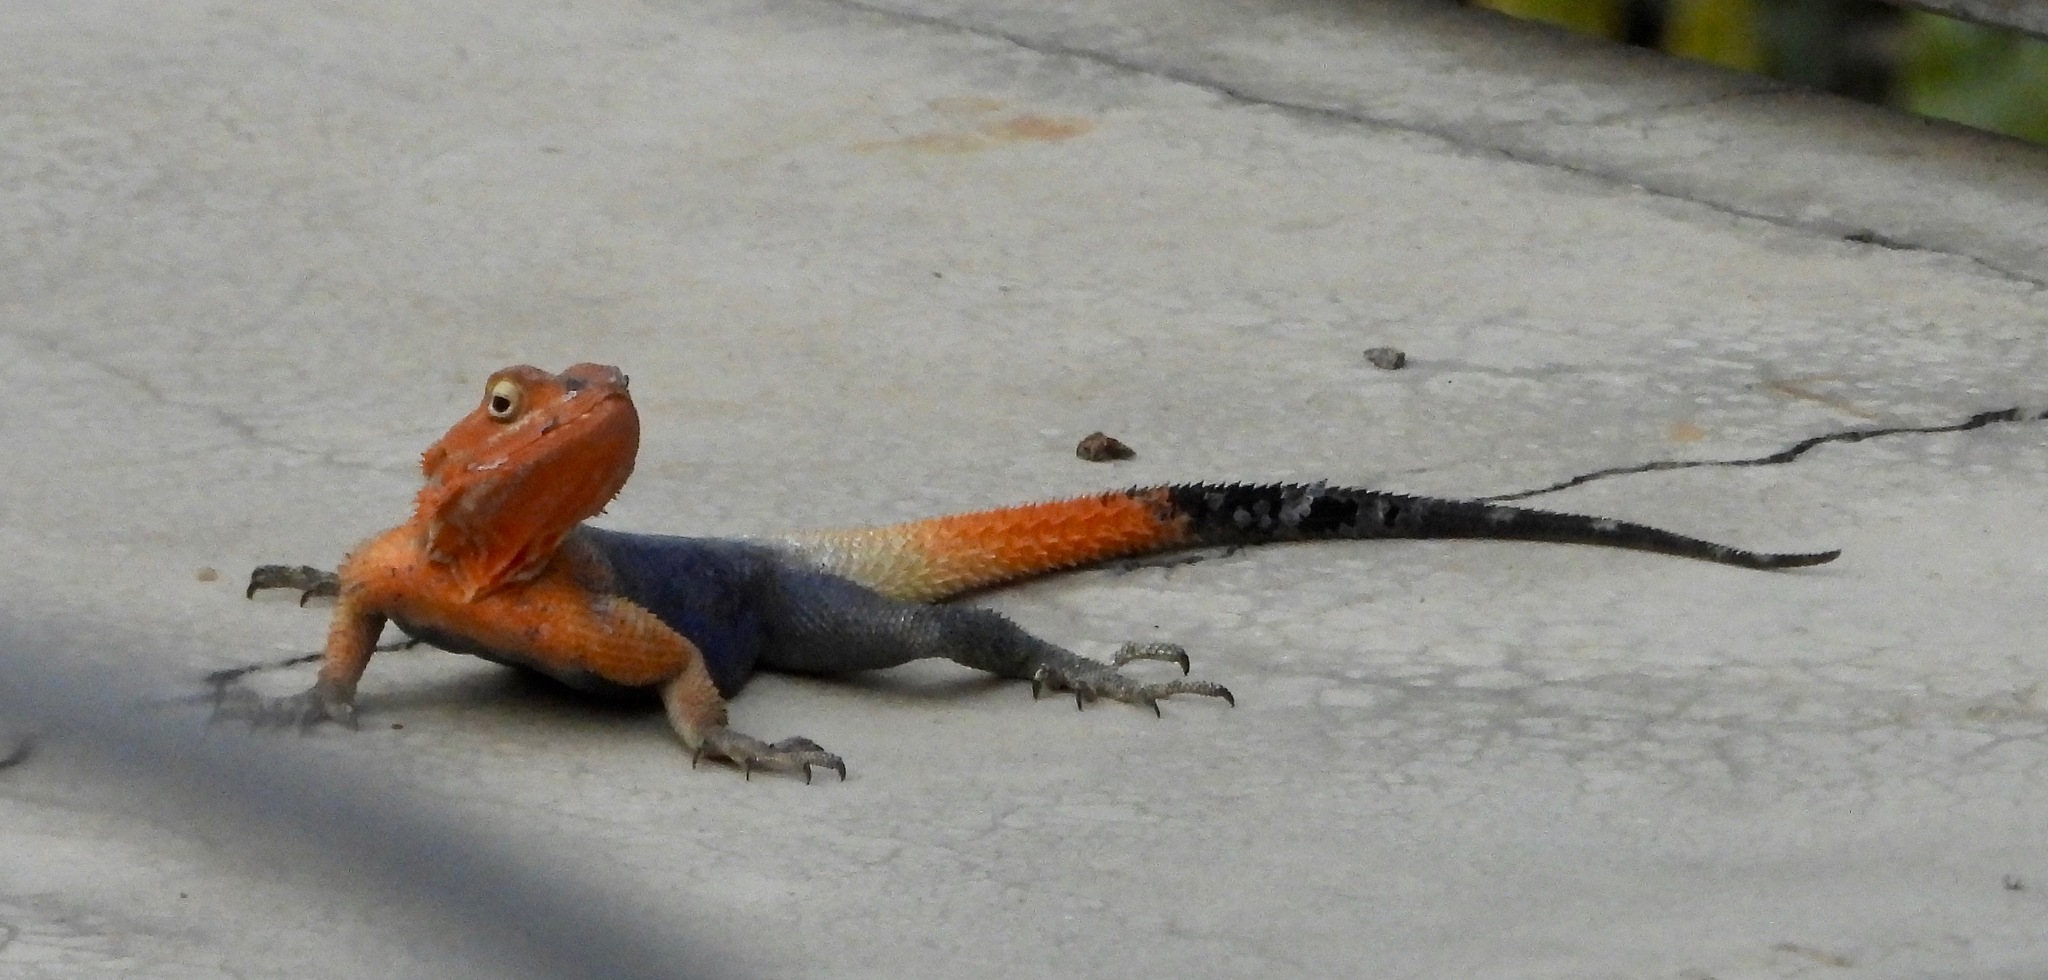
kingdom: Animalia
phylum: Chordata
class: Squamata
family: Agamidae
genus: Agama
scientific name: Agama planiceps
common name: Namib rock agama
